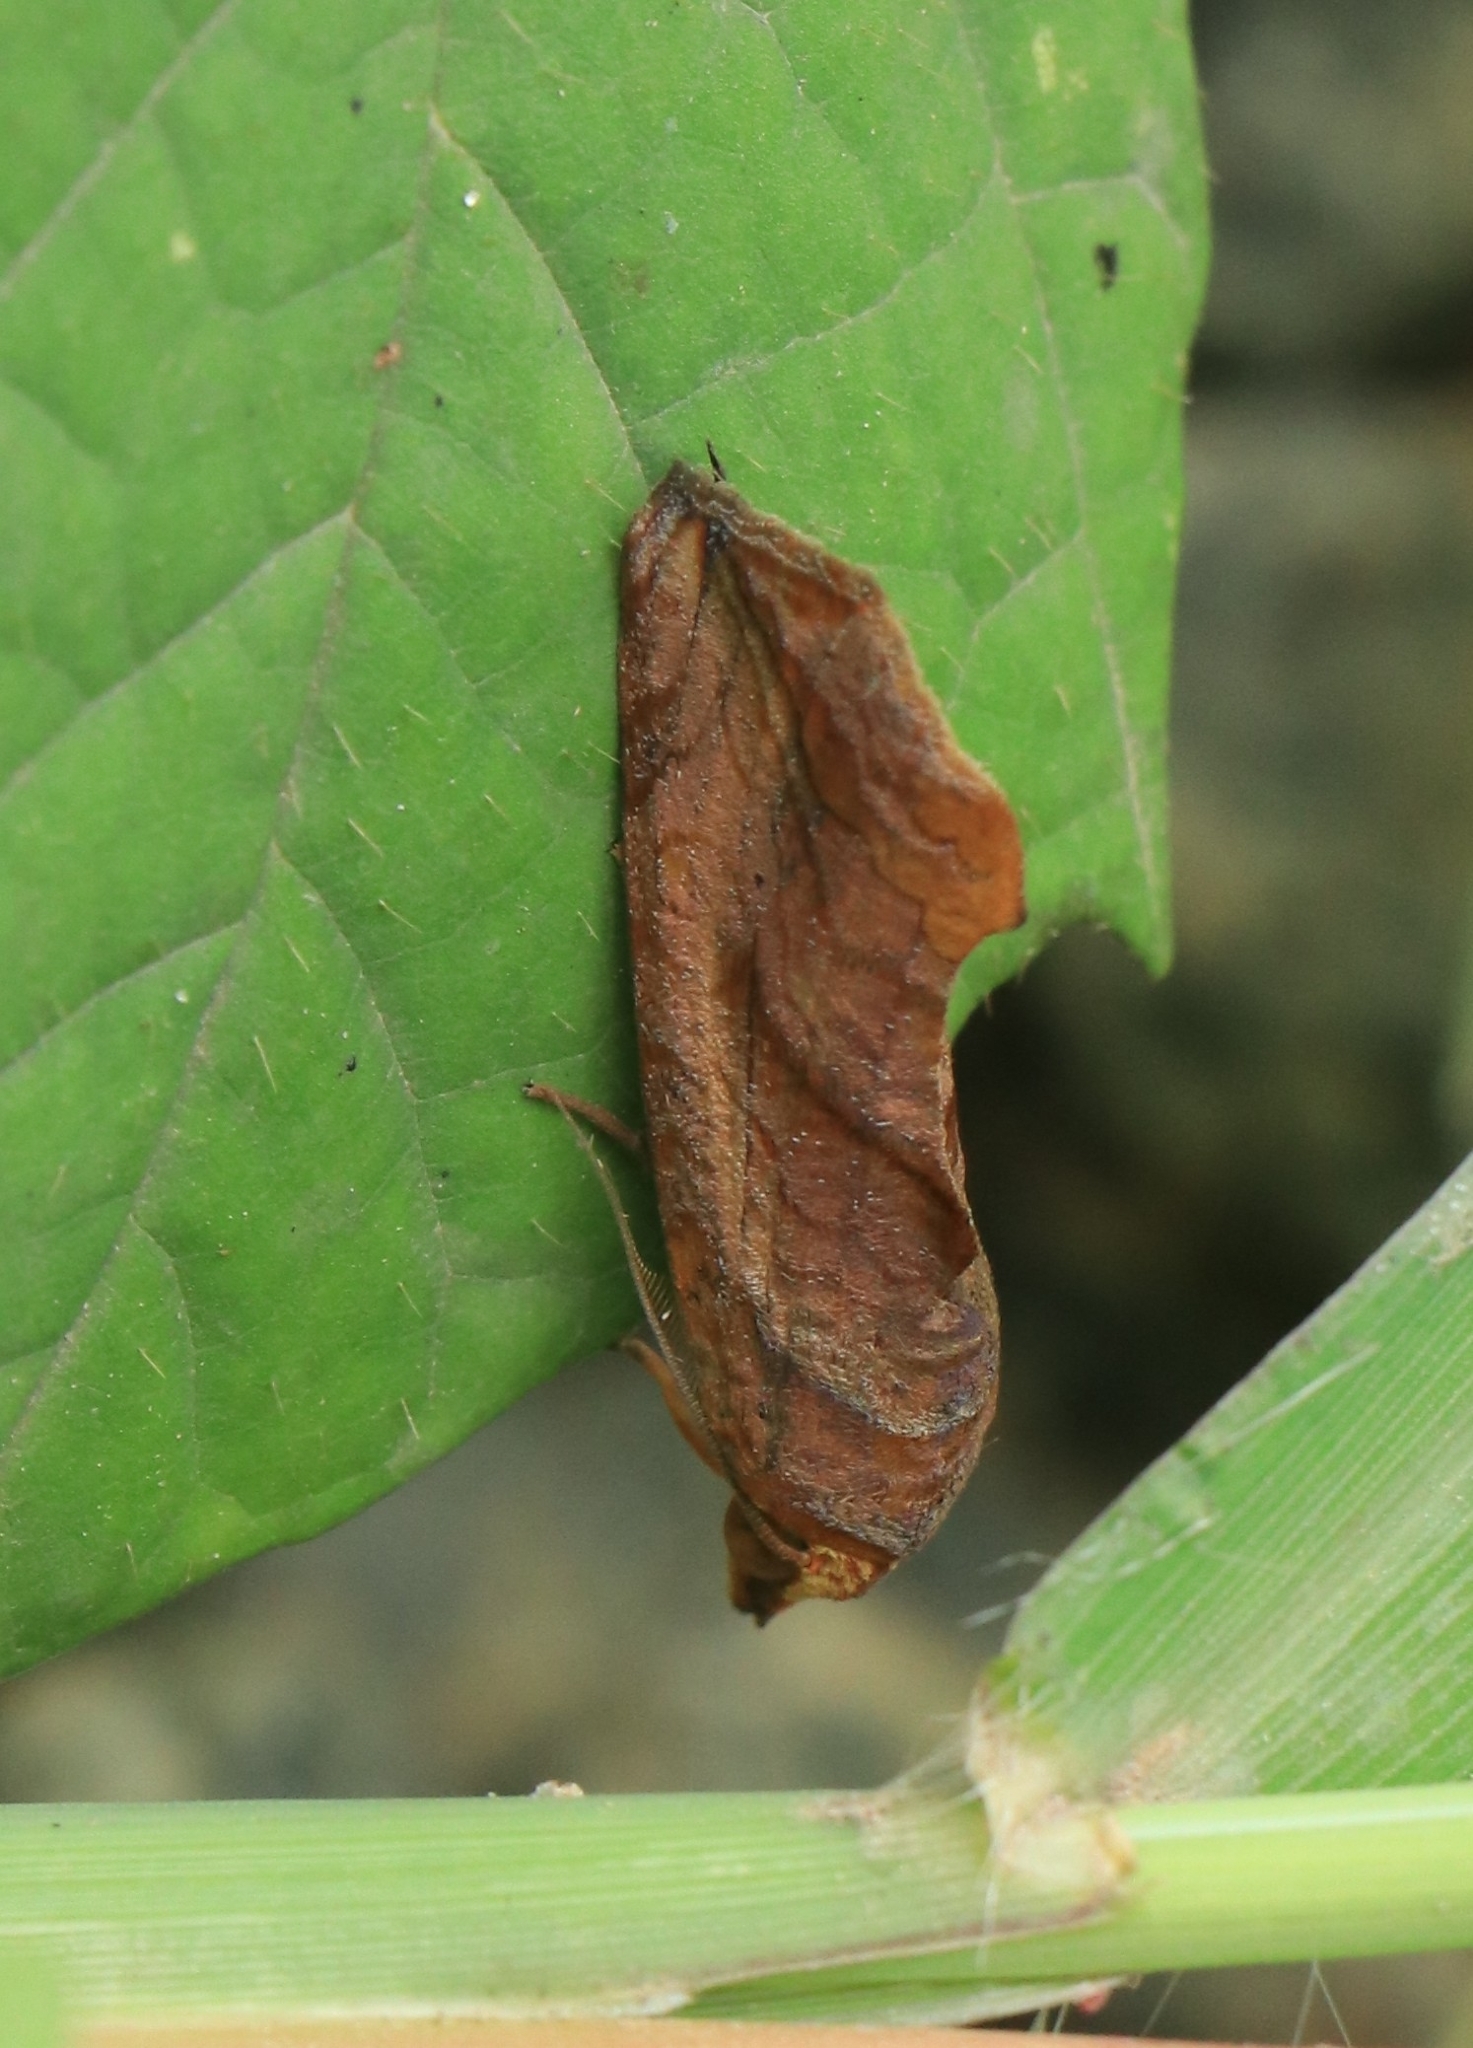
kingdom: Animalia
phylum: Arthropoda
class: Insecta
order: Lepidoptera
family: Erebidae
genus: Oraesia
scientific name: Oraesia emarginata
